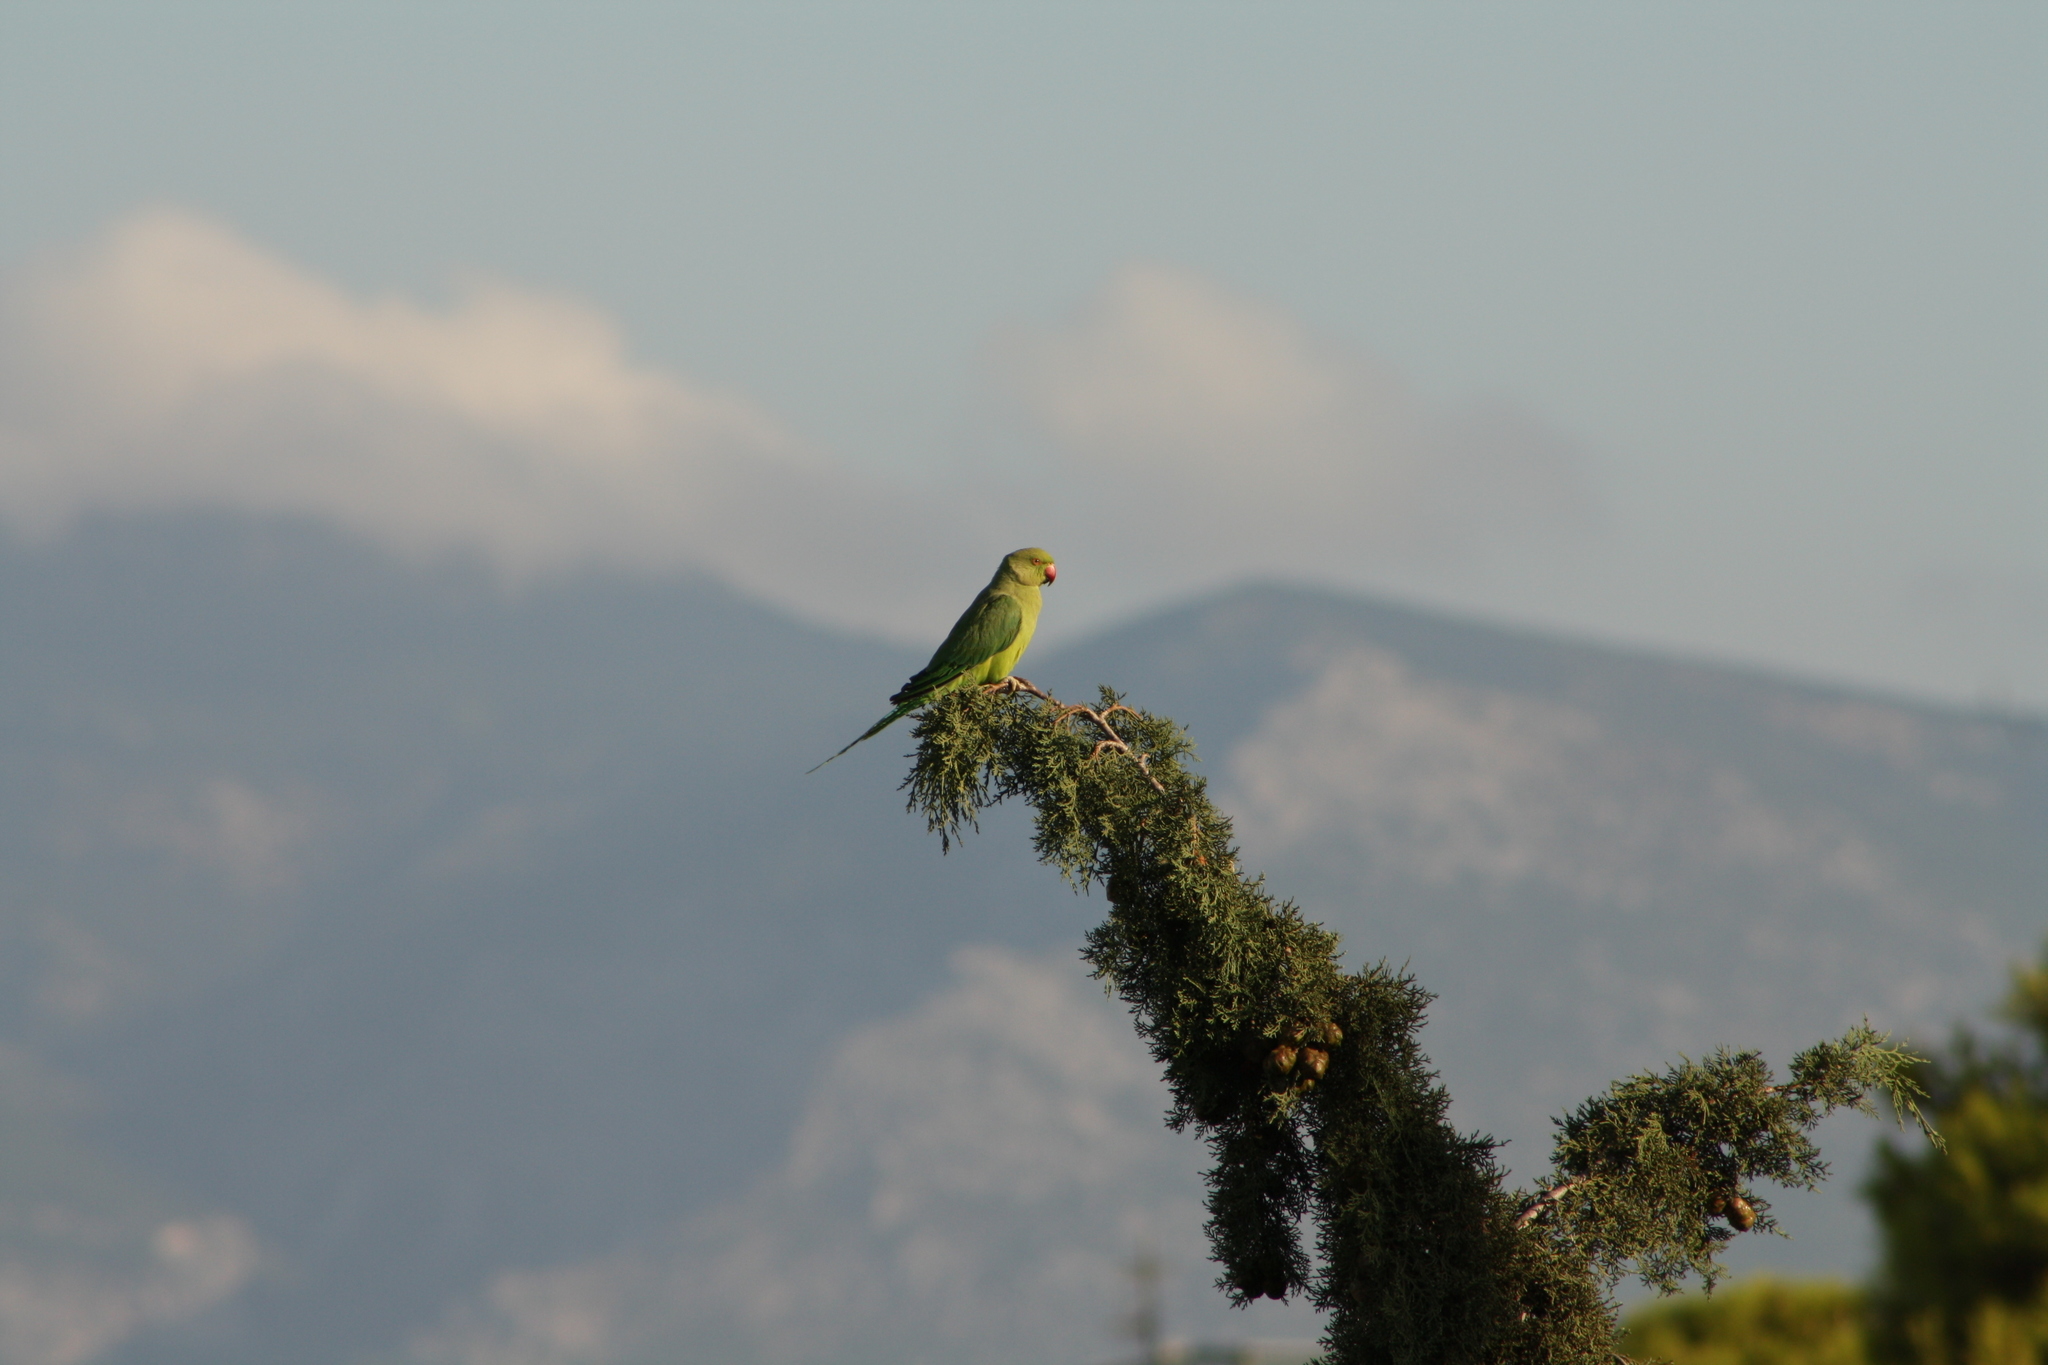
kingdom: Animalia
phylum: Chordata
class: Aves
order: Psittaciformes
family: Psittacidae
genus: Psittacula
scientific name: Psittacula krameri
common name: Rose-ringed parakeet
